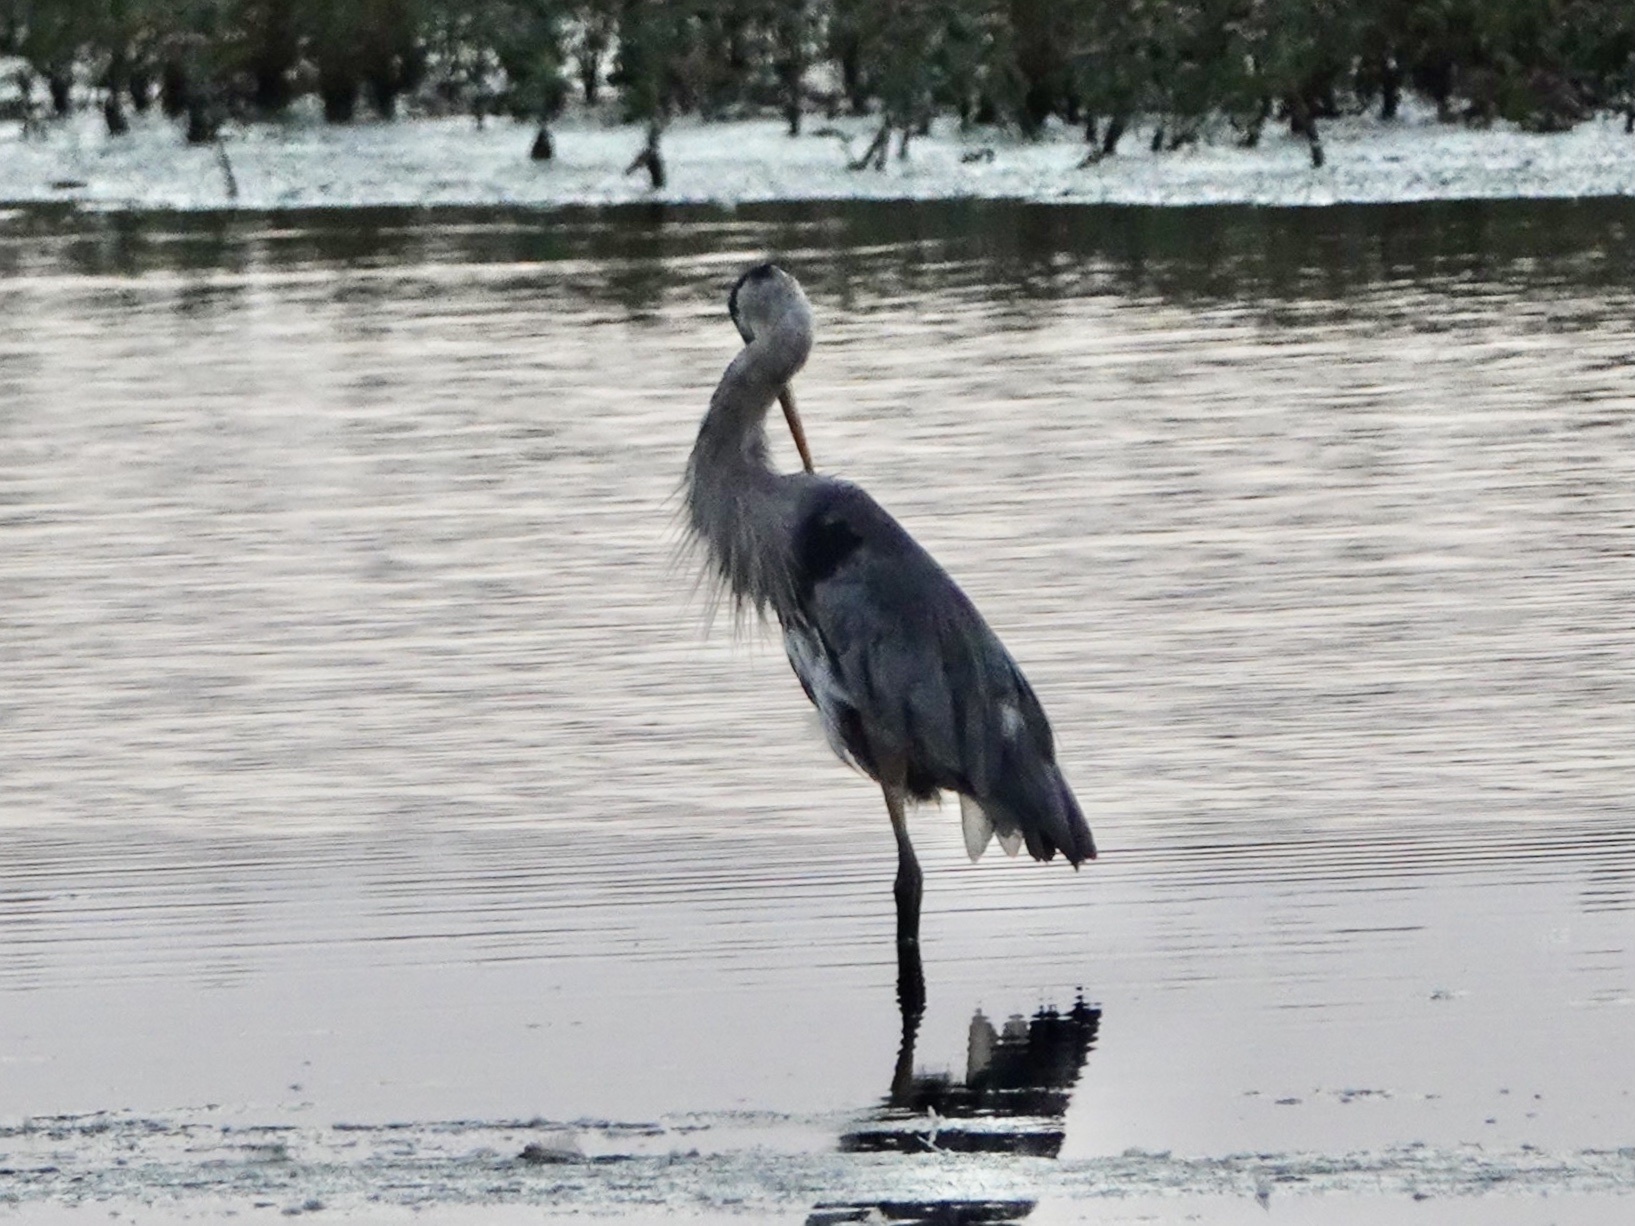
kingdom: Animalia
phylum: Chordata
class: Aves
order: Pelecaniformes
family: Ardeidae
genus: Ardea
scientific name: Ardea herodias
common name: Great blue heron
